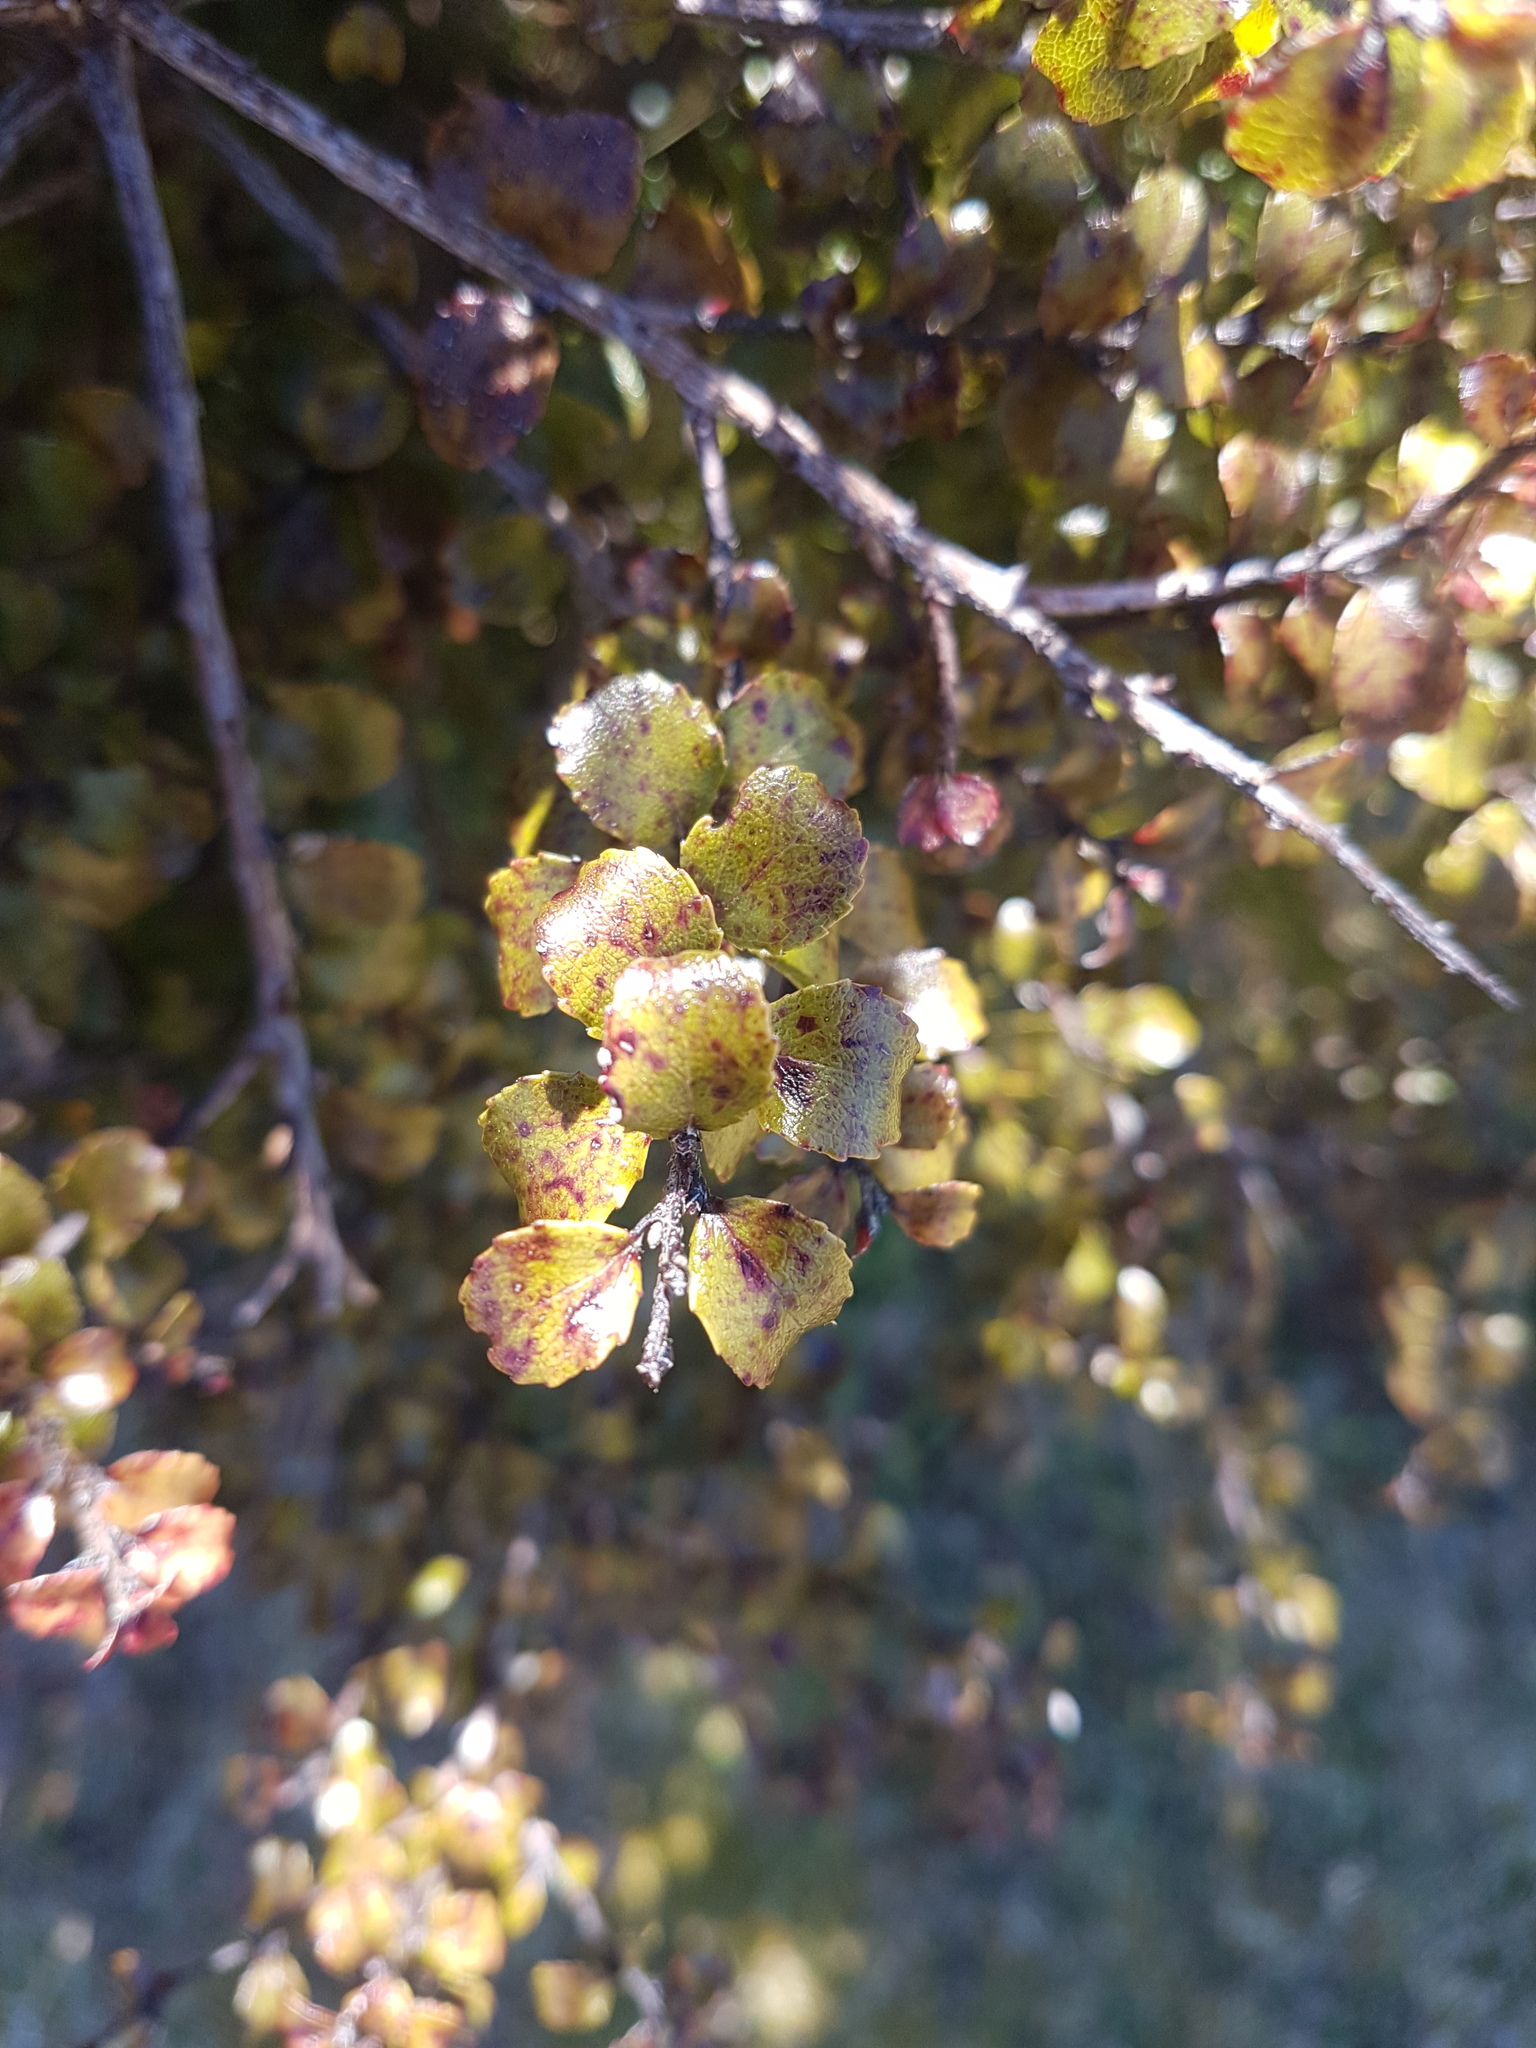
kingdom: Plantae
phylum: Tracheophyta
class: Magnoliopsida
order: Ericales
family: Ericaceae
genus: Gaultheria
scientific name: Gaultheria antipoda
